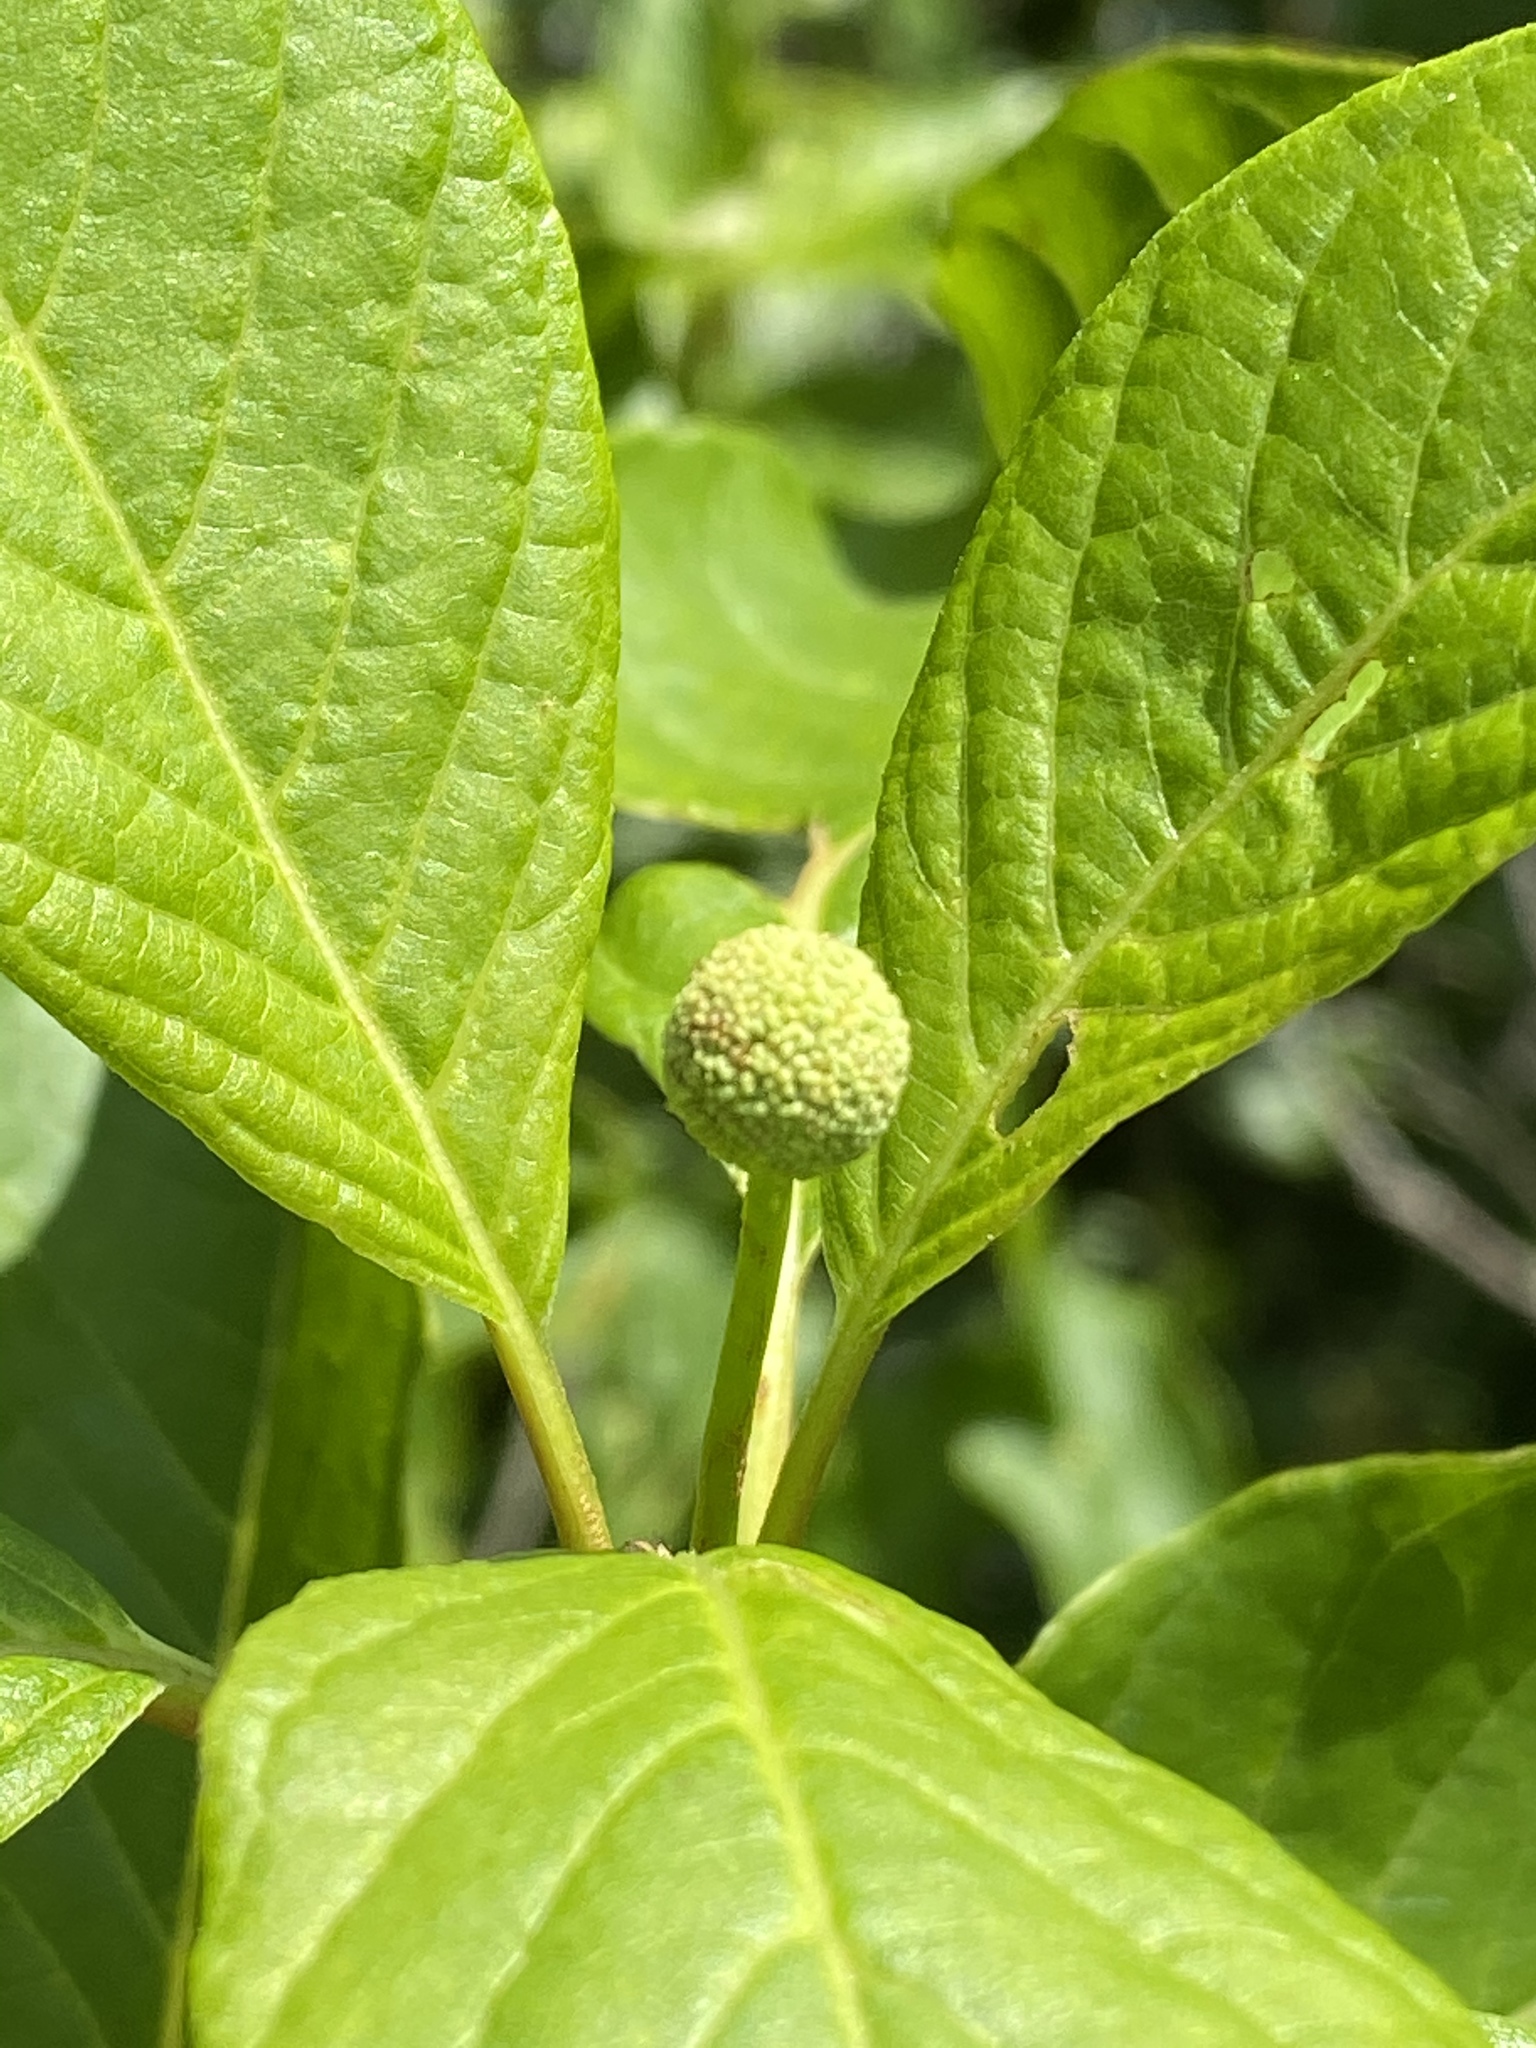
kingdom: Plantae
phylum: Tracheophyta
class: Magnoliopsida
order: Gentianales
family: Rubiaceae
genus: Cephalanthus
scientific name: Cephalanthus occidentalis
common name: Button-willow
